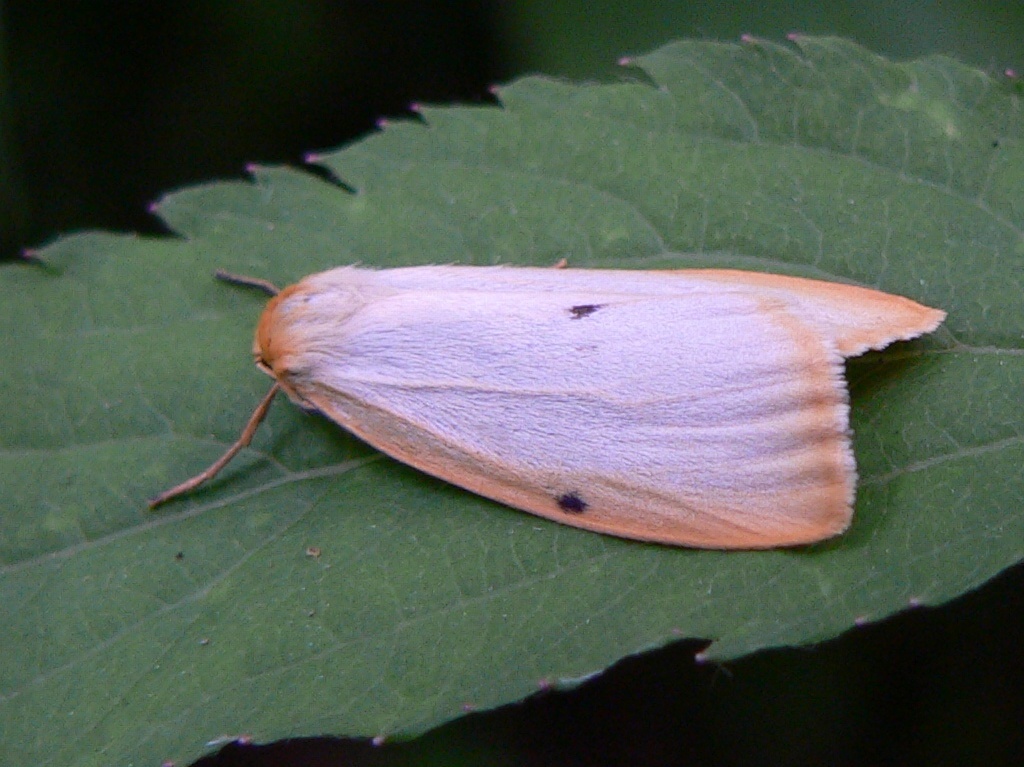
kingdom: Animalia
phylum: Arthropoda
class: Insecta
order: Lepidoptera
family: Erebidae
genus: Cybosia
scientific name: Cybosia mesomella
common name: Four-dotted footman
